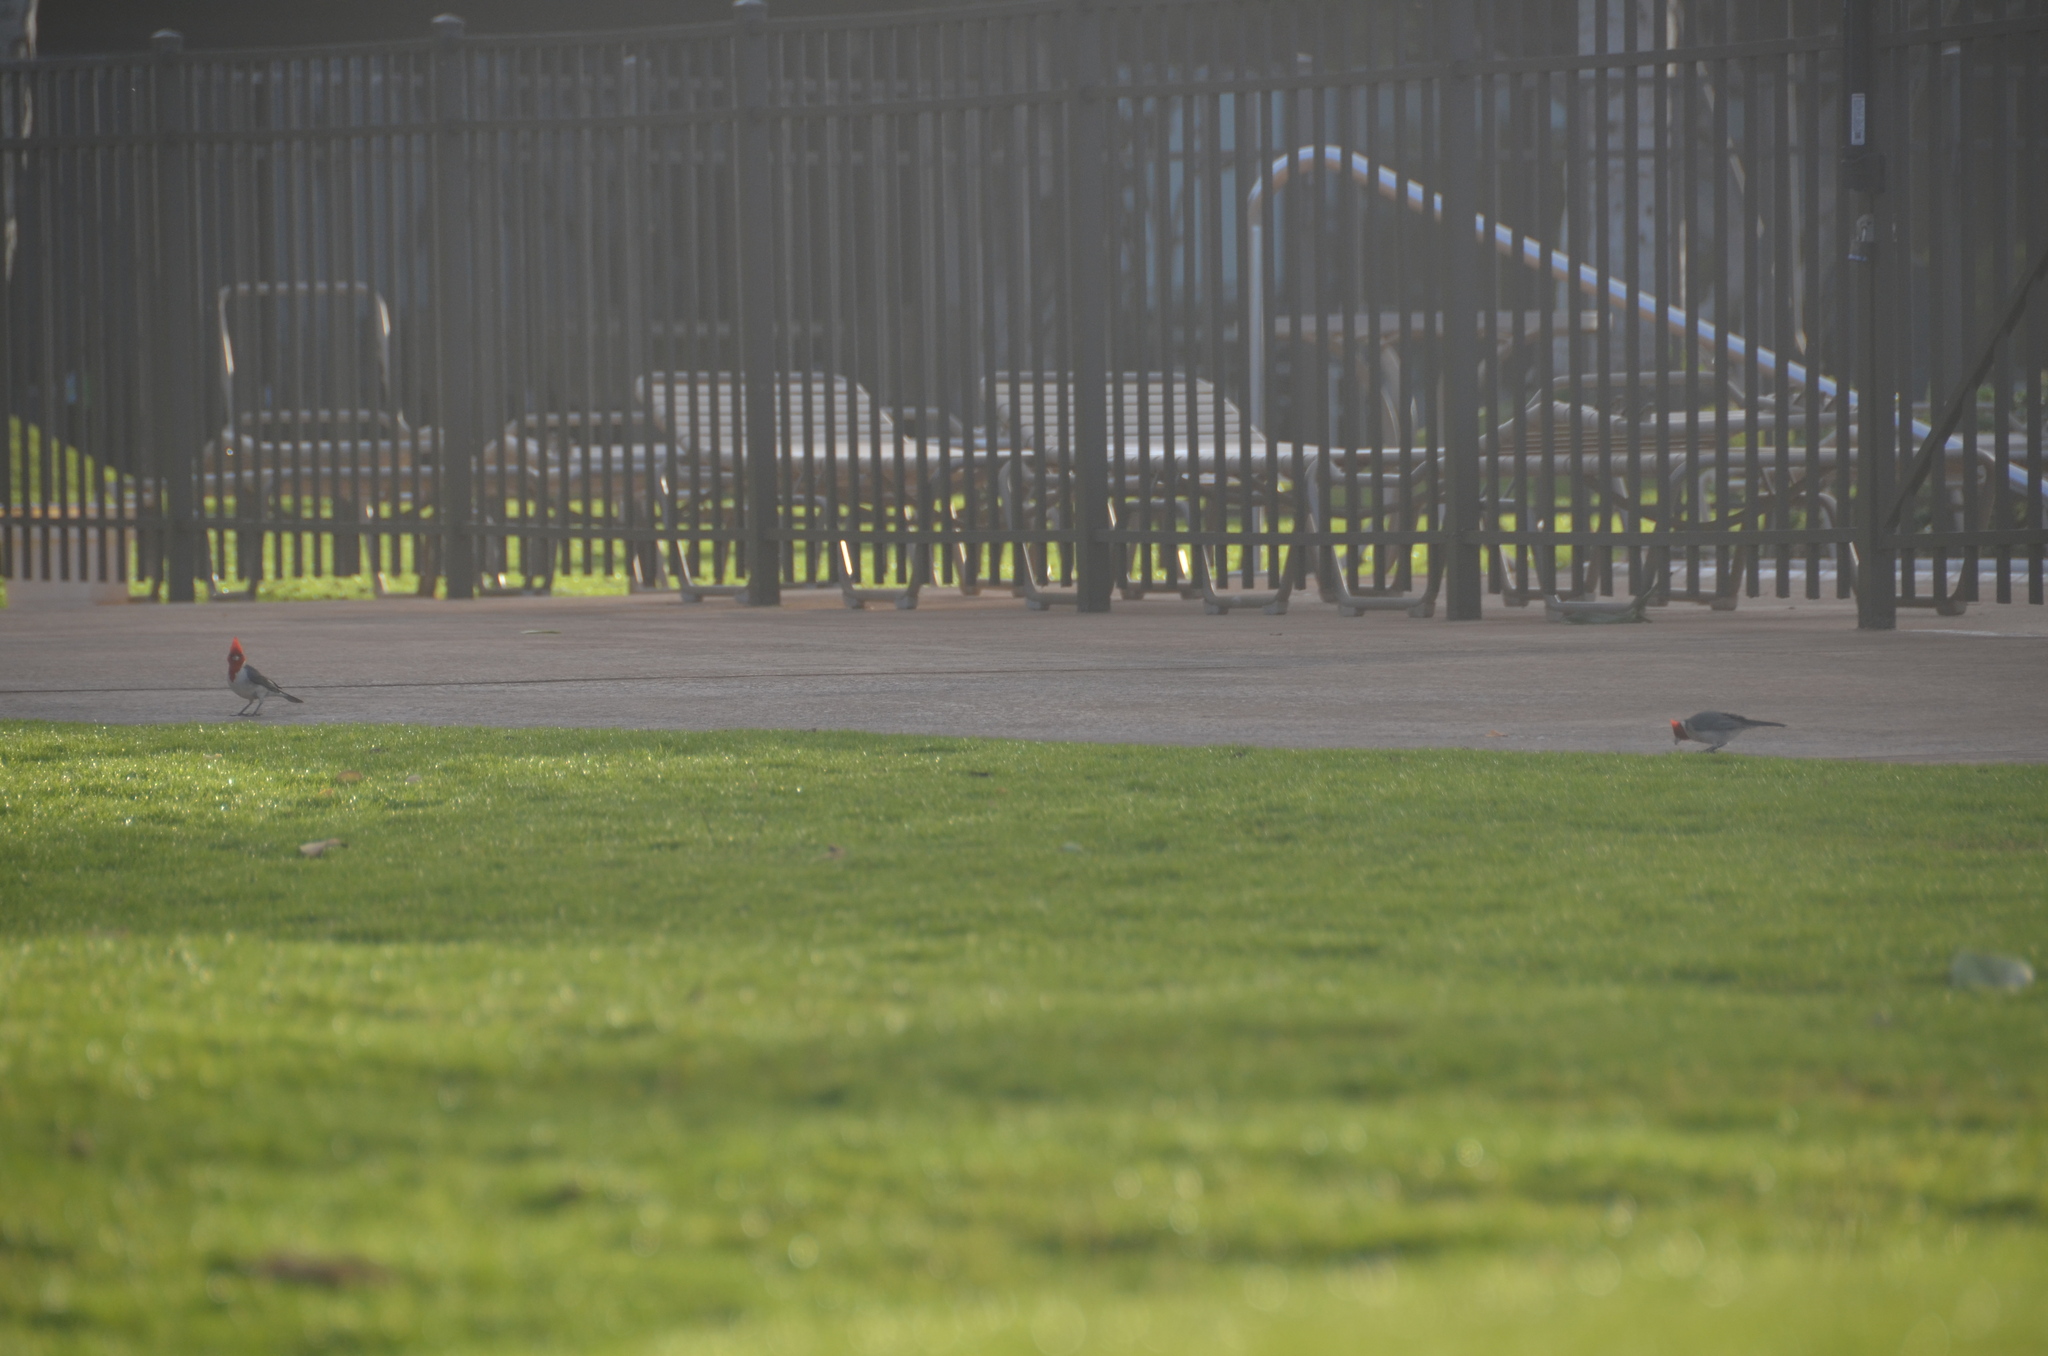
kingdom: Animalia
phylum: Chordata
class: Aves
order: Passeriformes
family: Thraupidae
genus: Paroaria
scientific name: Paroaria coronata
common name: Red-crested cardinal
